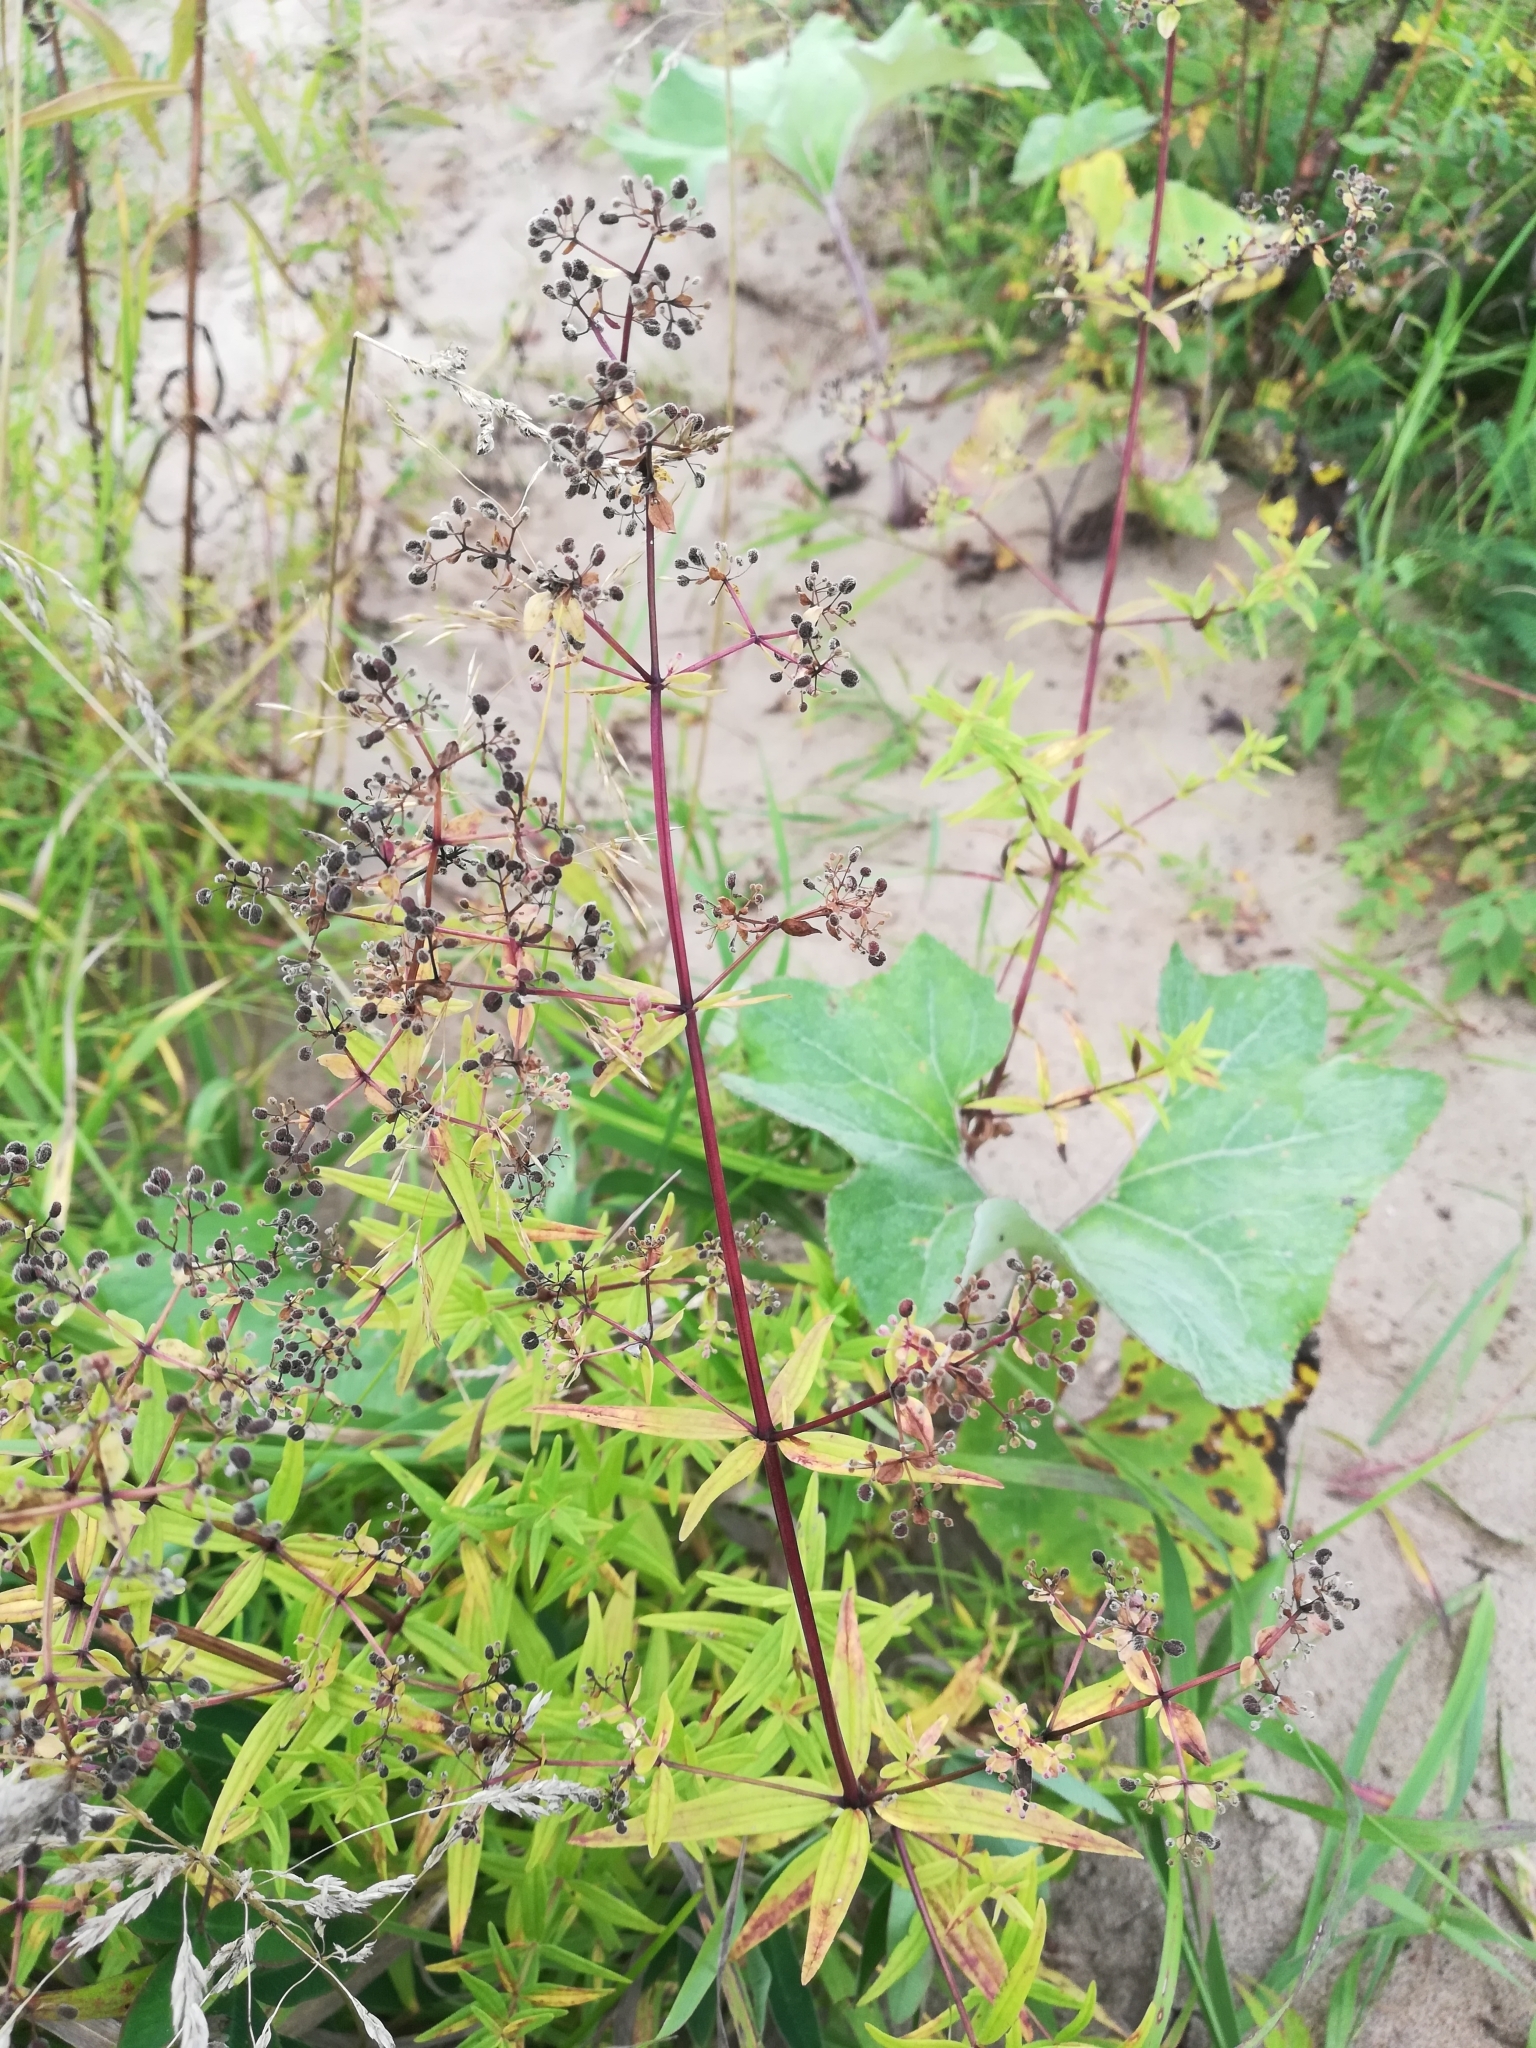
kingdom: Plantae
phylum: Tracheophyta
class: Magnoliopsida
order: Gentianales
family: Rubiaceae
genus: Galium
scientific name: Galium boreale
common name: Northern bedstraw
